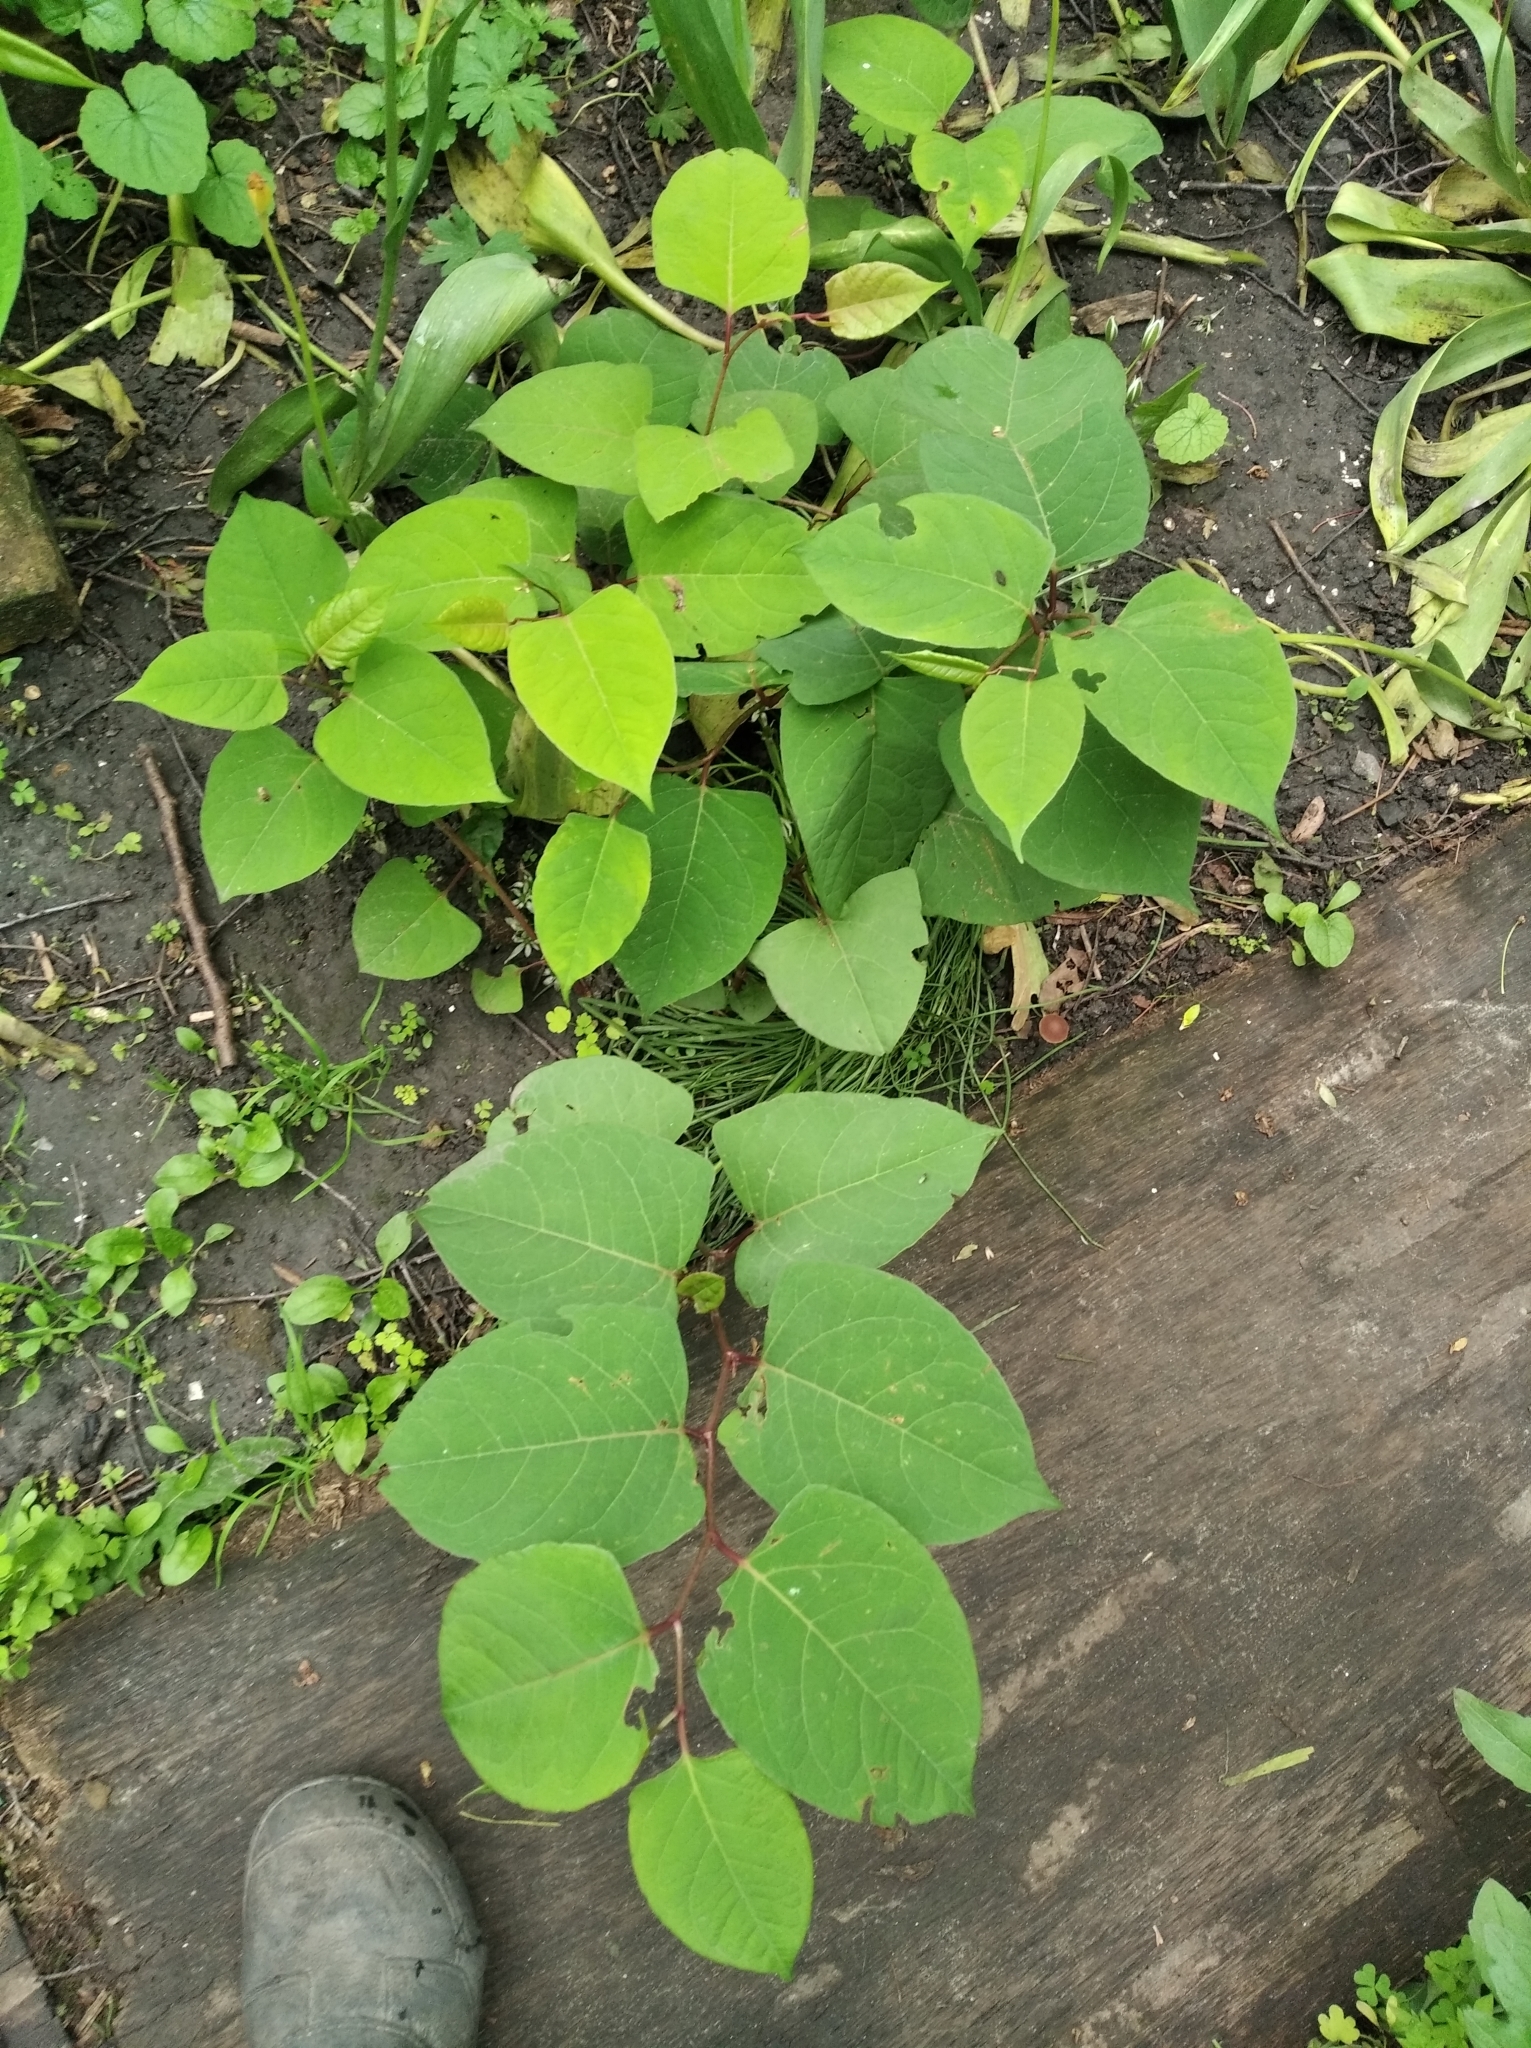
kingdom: Plantae
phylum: Tracheophyta
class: Magnoliopsida
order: Caryophyllales
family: Polygonaceae
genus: Reynoutria
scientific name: Reynoutria bohemica
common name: Bohemian knotweed
